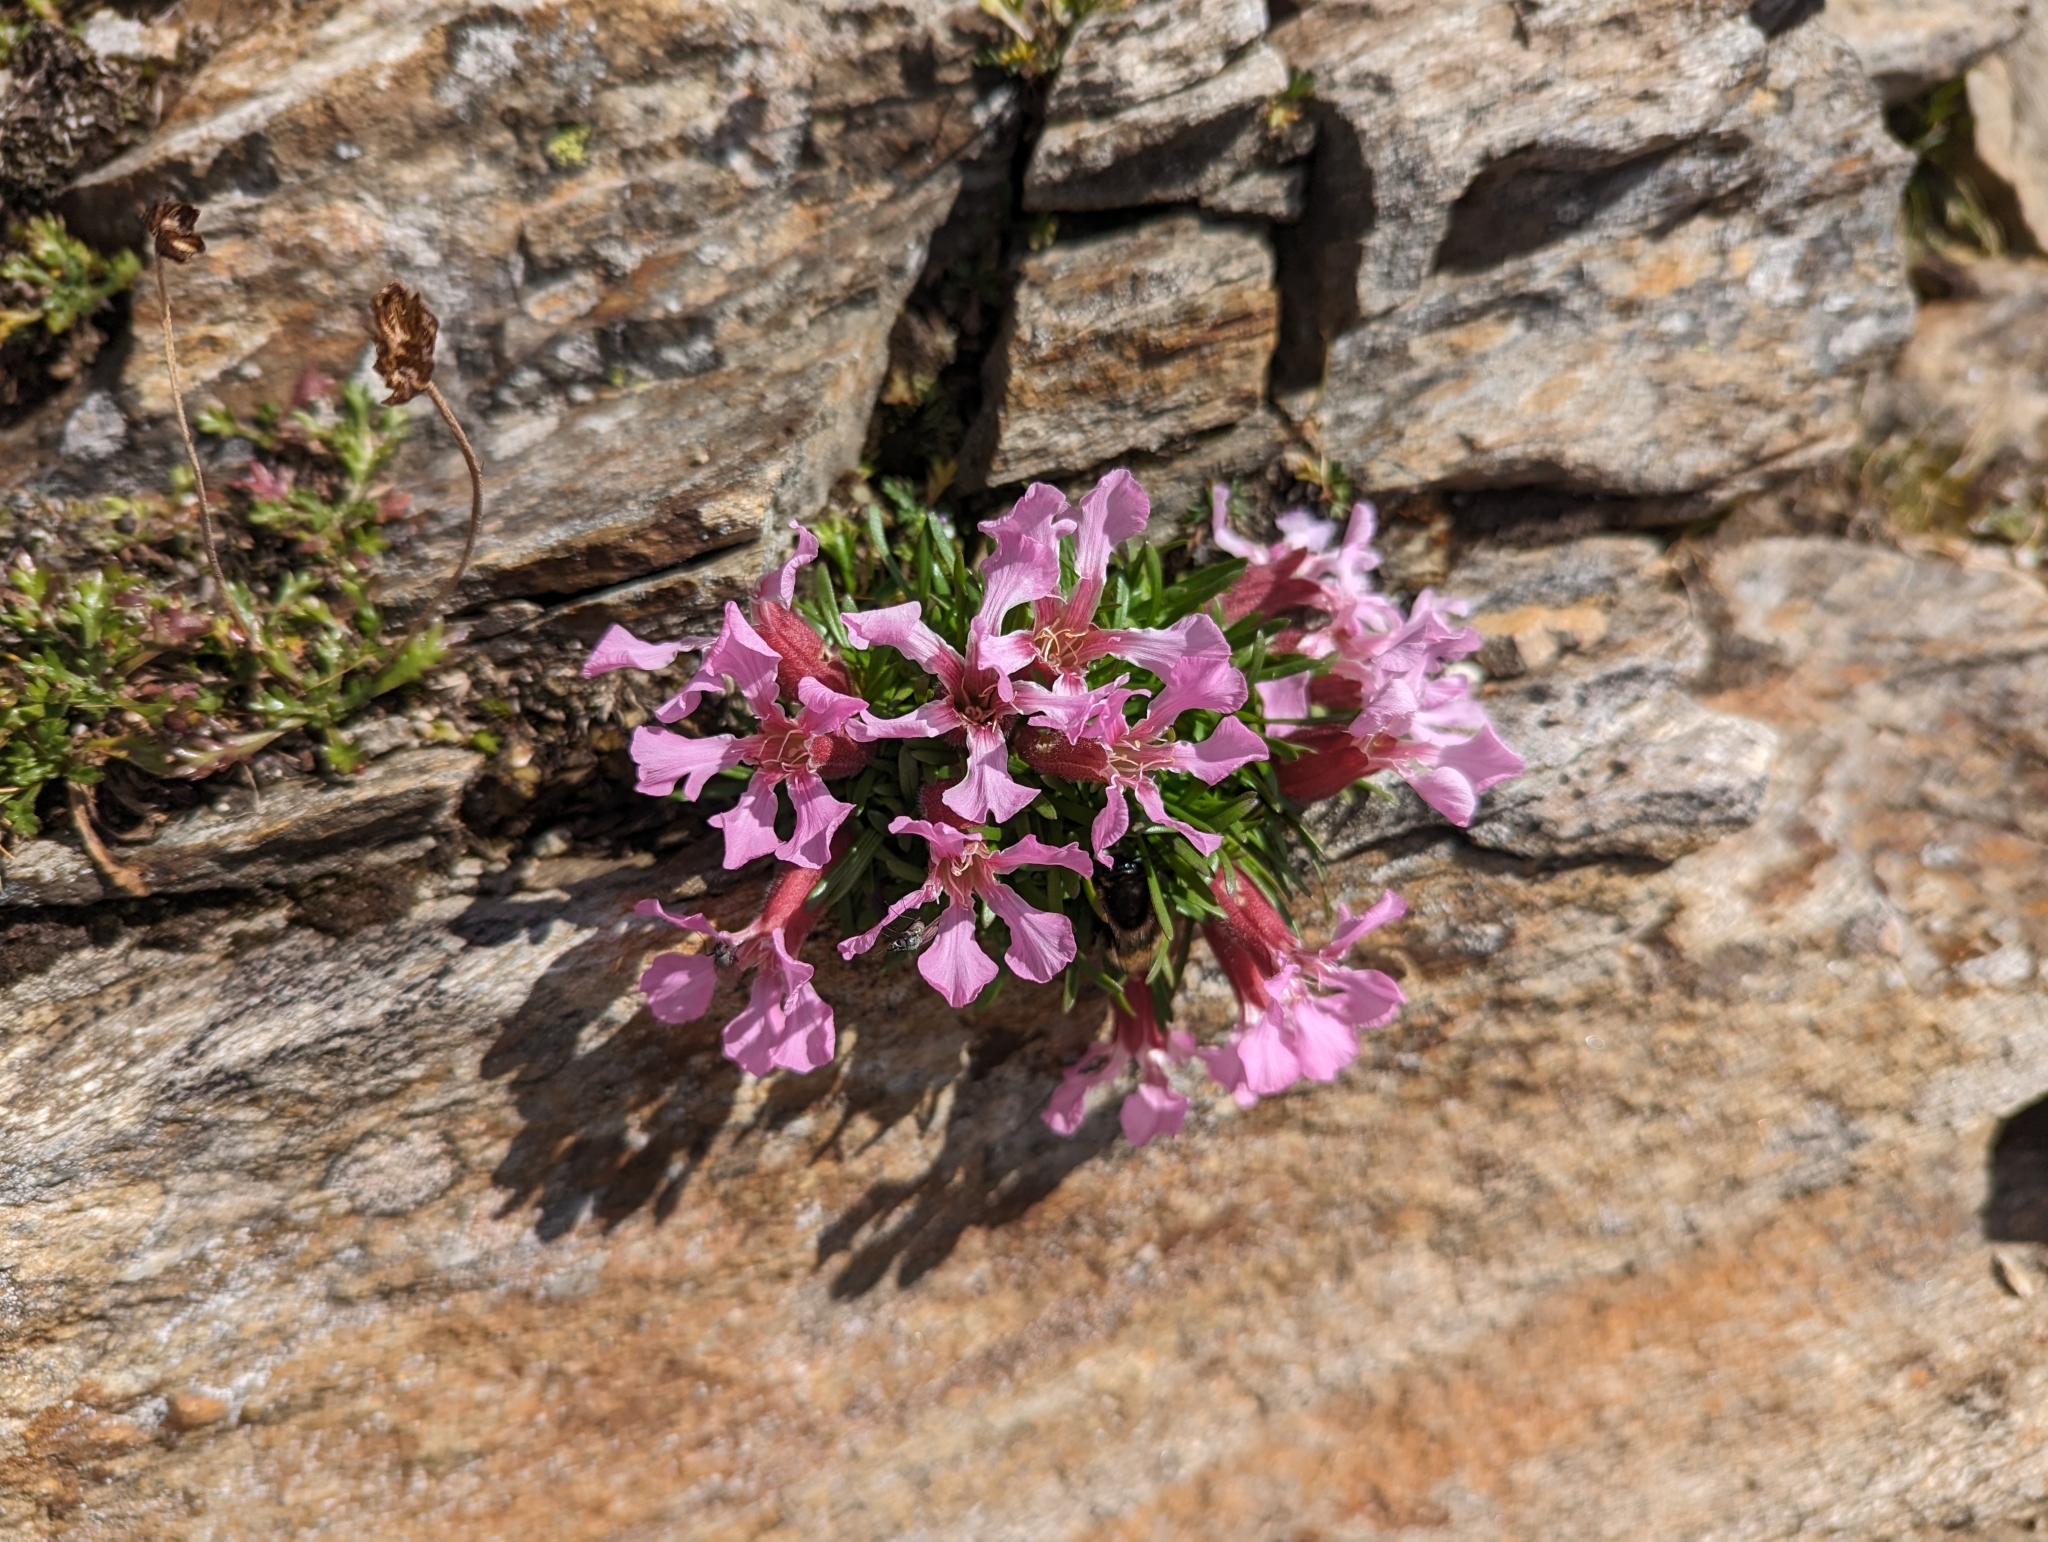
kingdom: Plantae
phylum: Tracheophyta
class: Magnoliopsida
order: Caryophyllales
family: Caryophyllaceae
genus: Saponaria
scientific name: Saponaria pumila
